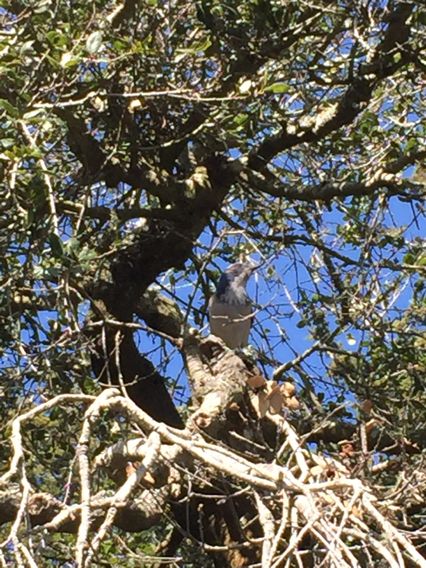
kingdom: Animalia
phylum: Chordata
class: Aves
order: Passeriformes
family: Corvidae
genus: Aphelocoma
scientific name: Aphelocoma californica
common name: California scrub-jay
